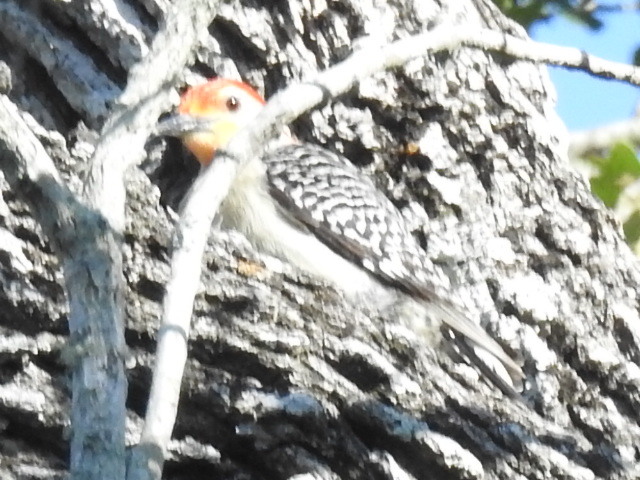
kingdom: Animalia
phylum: Chordata
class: Aves
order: Piciformes
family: Picidae
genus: Melanerpes
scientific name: Melanerpes carolinus
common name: Red-bellied woodpecker
